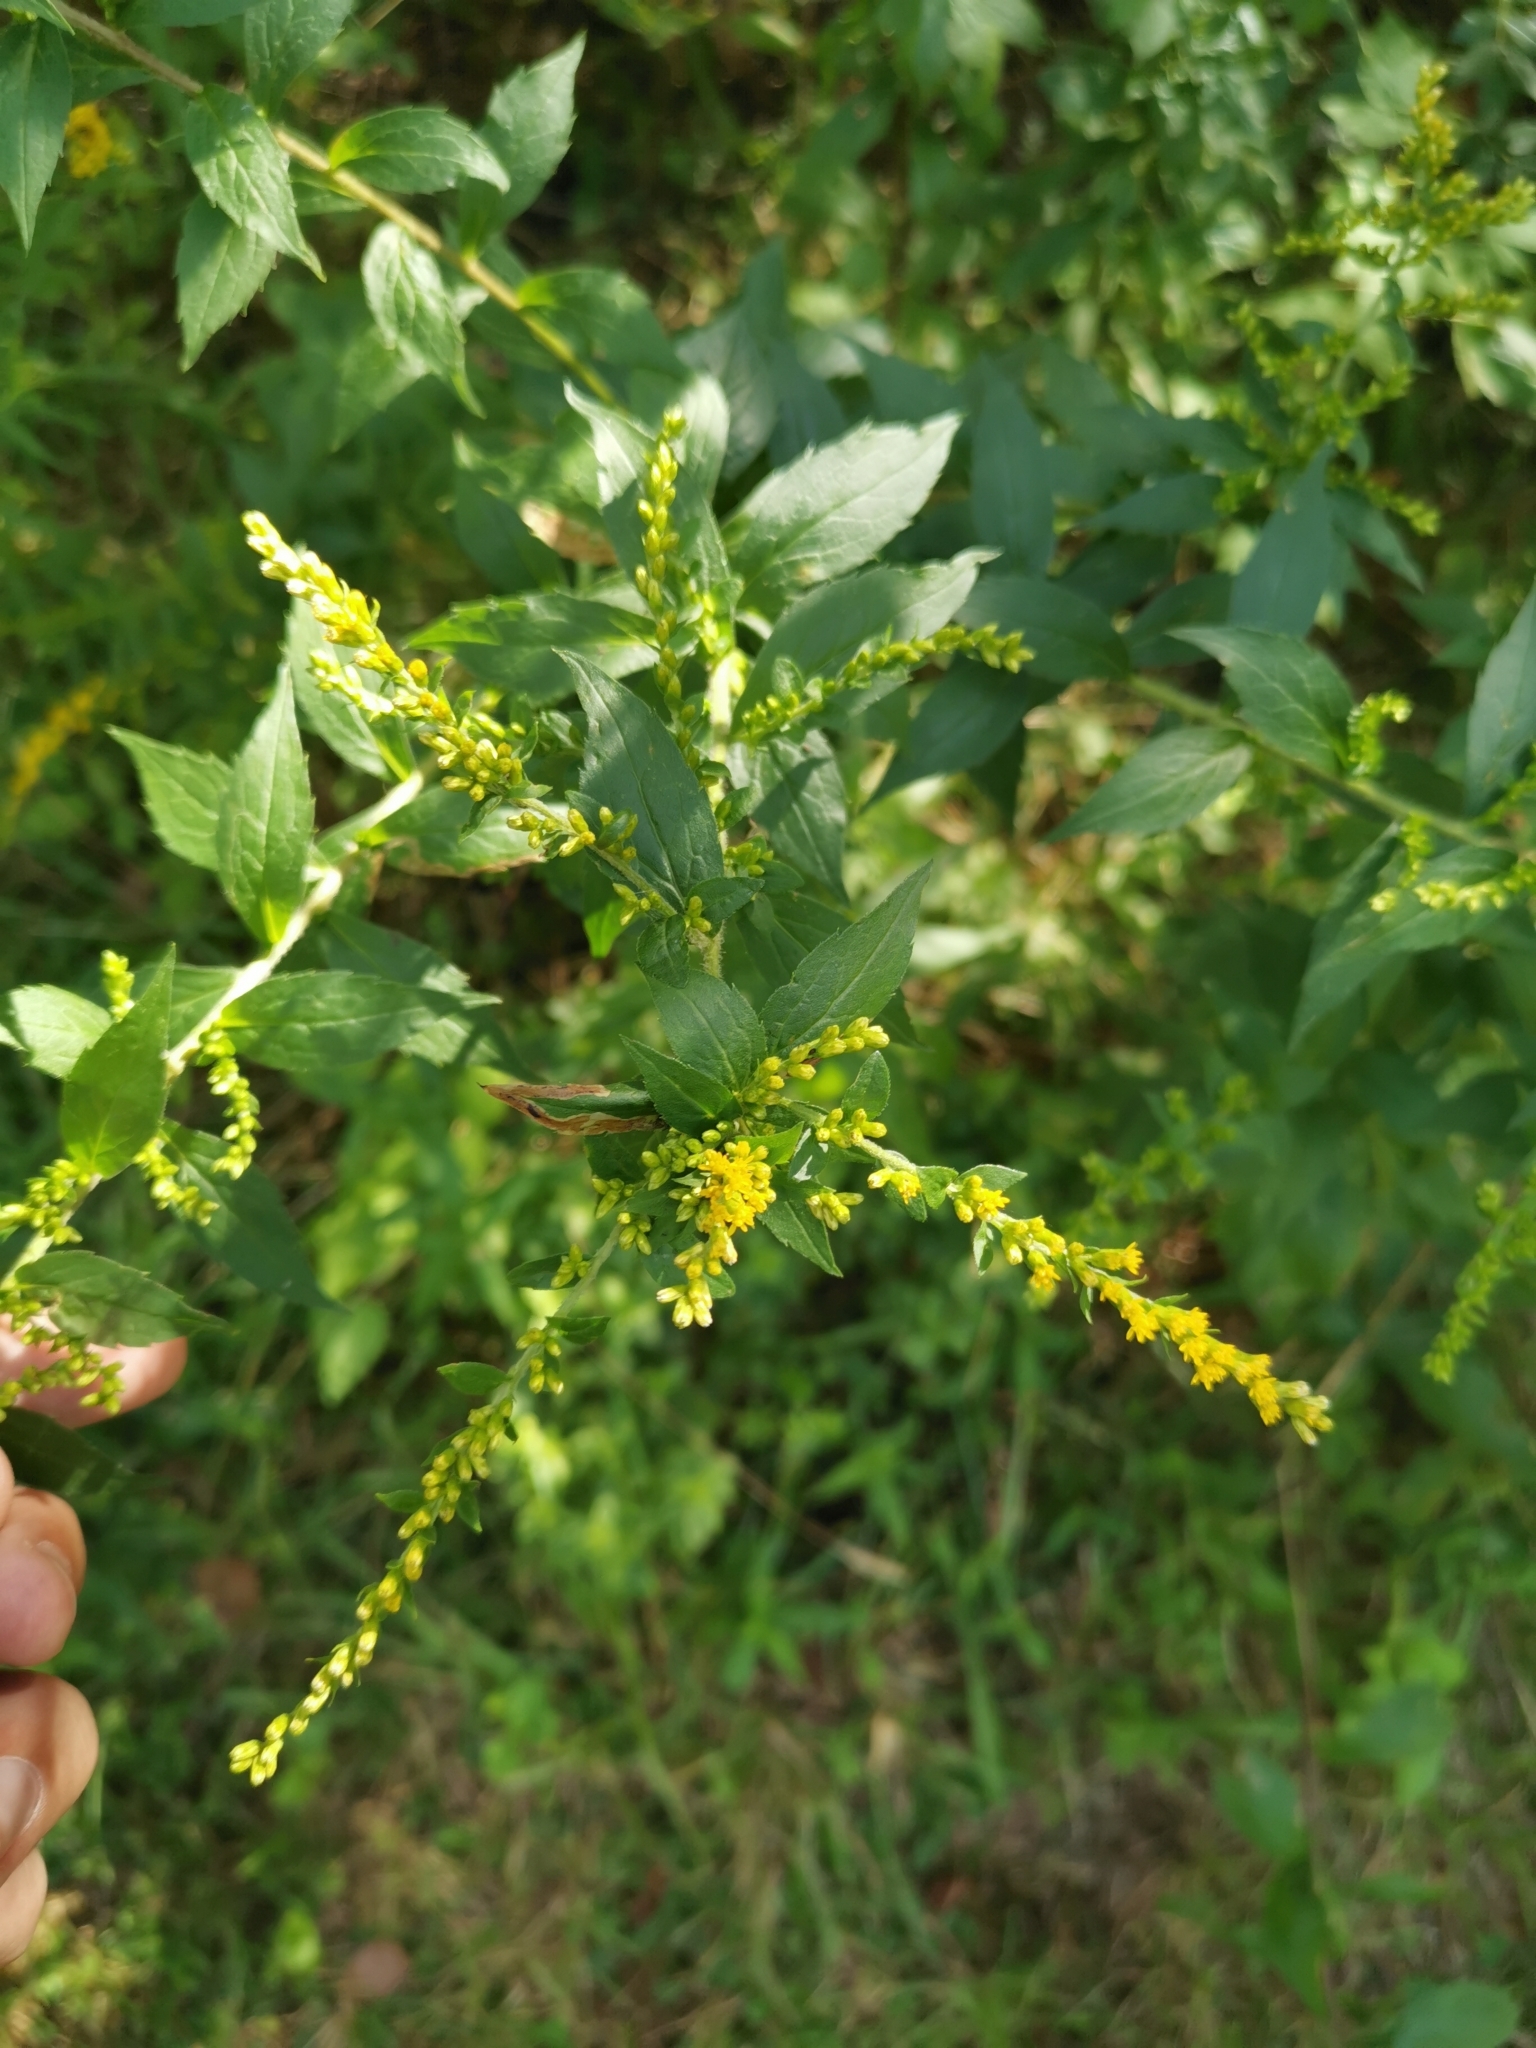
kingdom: Plantae
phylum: Tracheophyta
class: Magnoliopsida
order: Asterales
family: Asteraceae
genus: Solidago
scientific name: Solidago rugosa
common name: Rough-stemmed goldenrod
